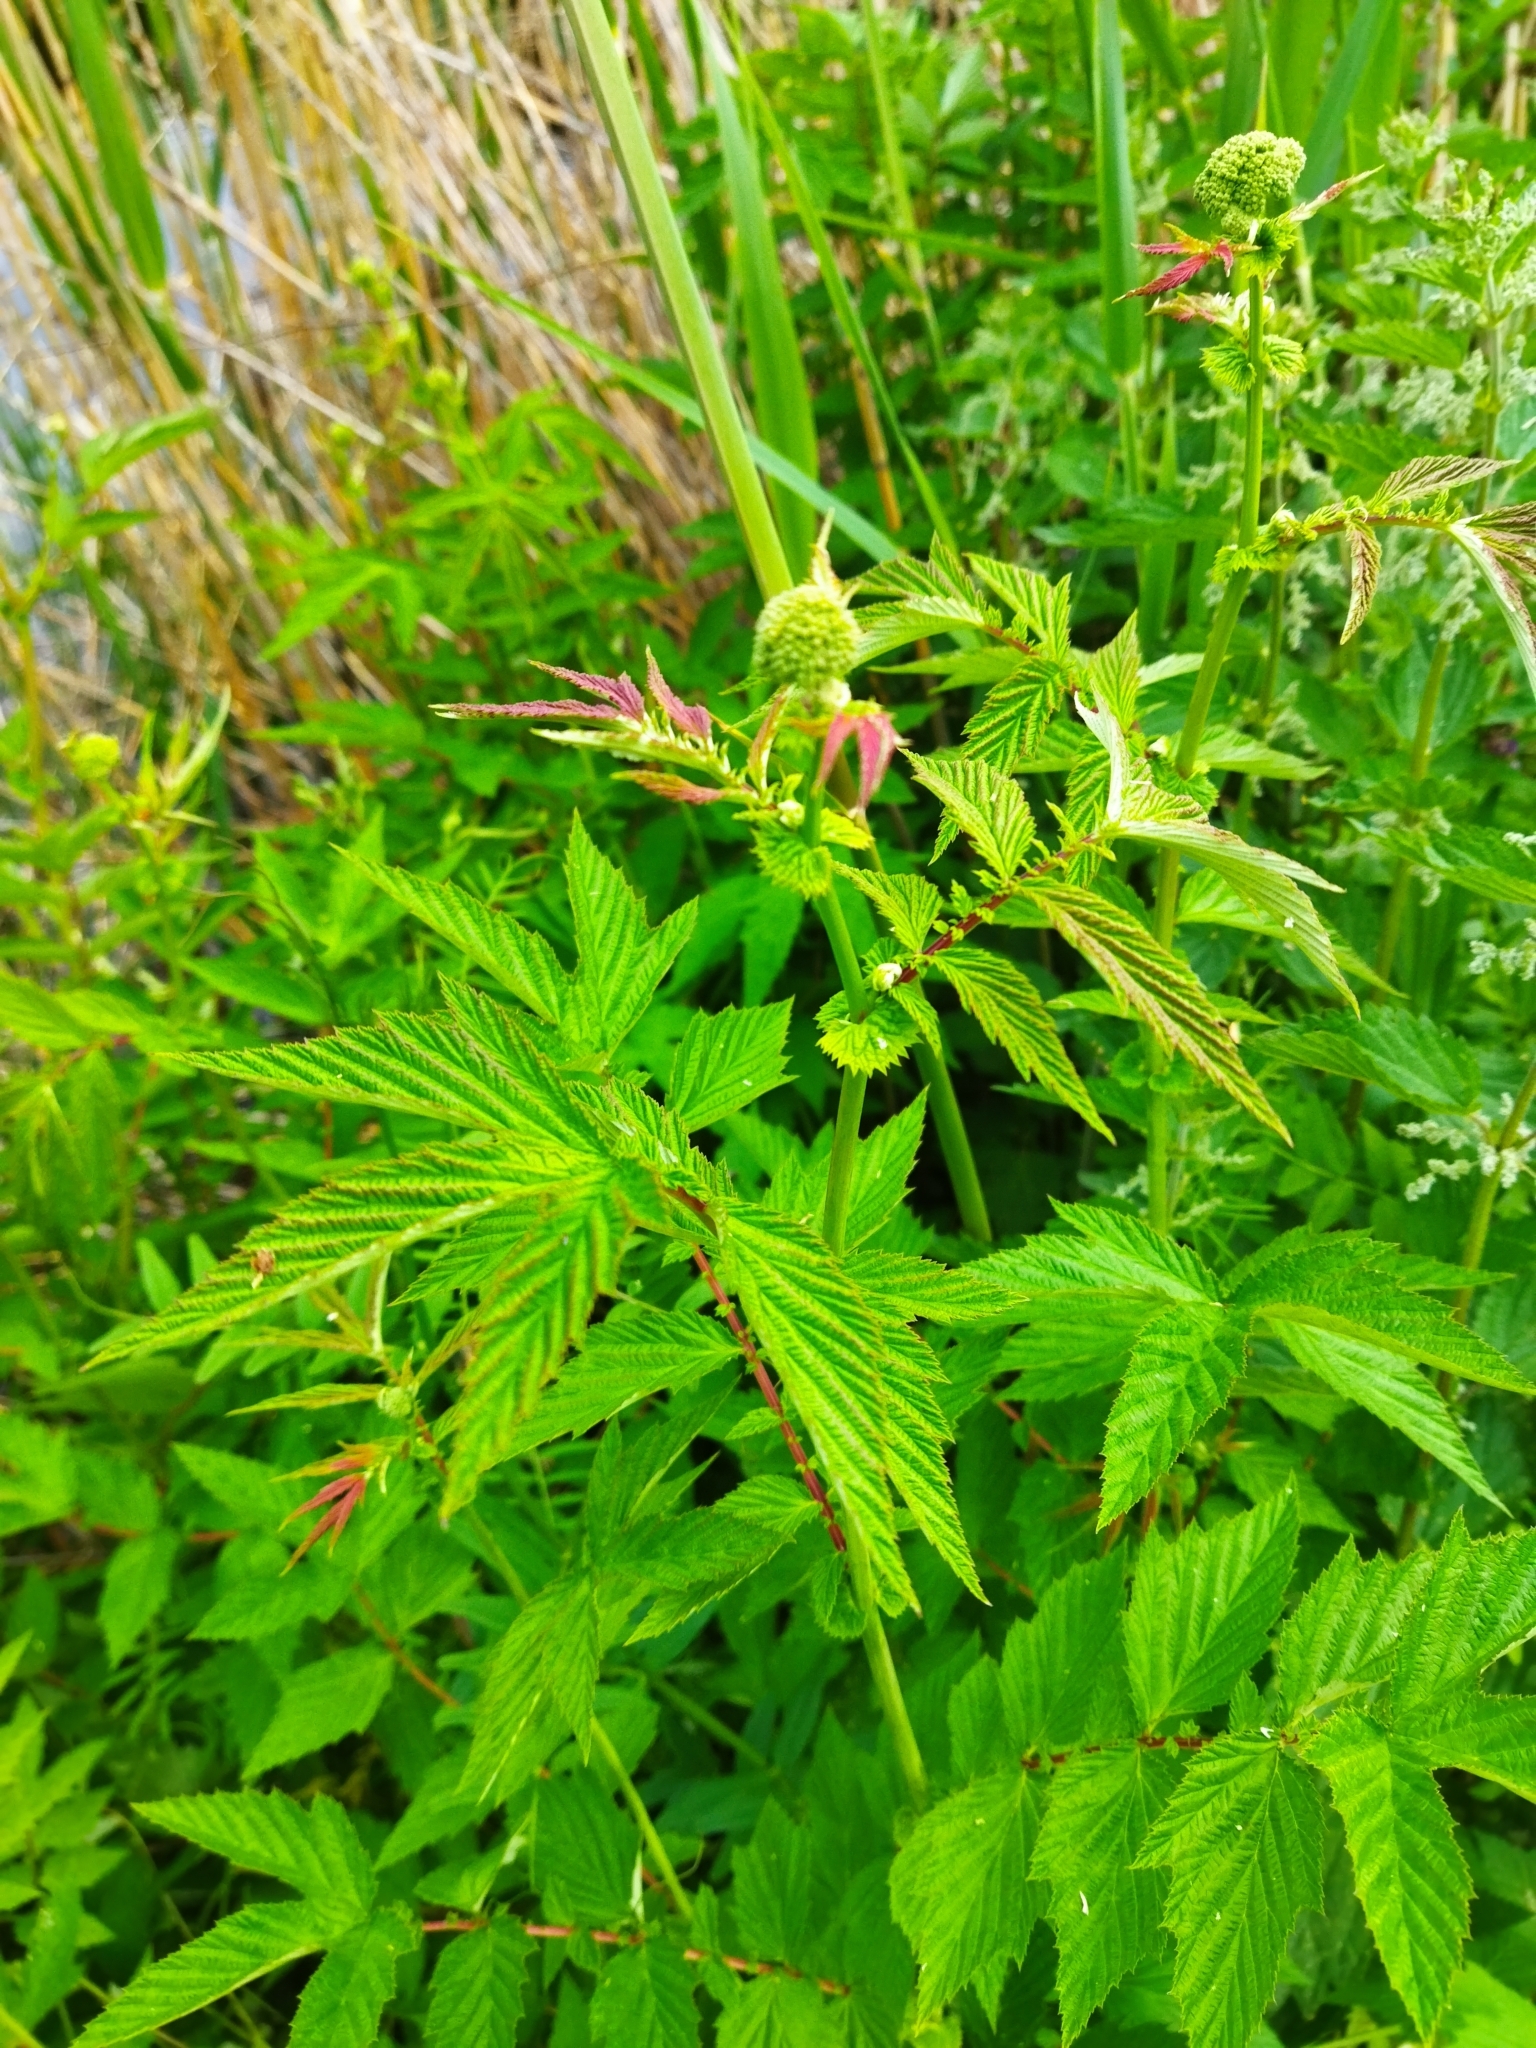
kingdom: Plantae
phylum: Tracheophyta
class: Magnoliopsida
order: Rosales
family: Rosaceae
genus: Filipendula
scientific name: Filipendula ulmaria
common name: Meadowsweet
